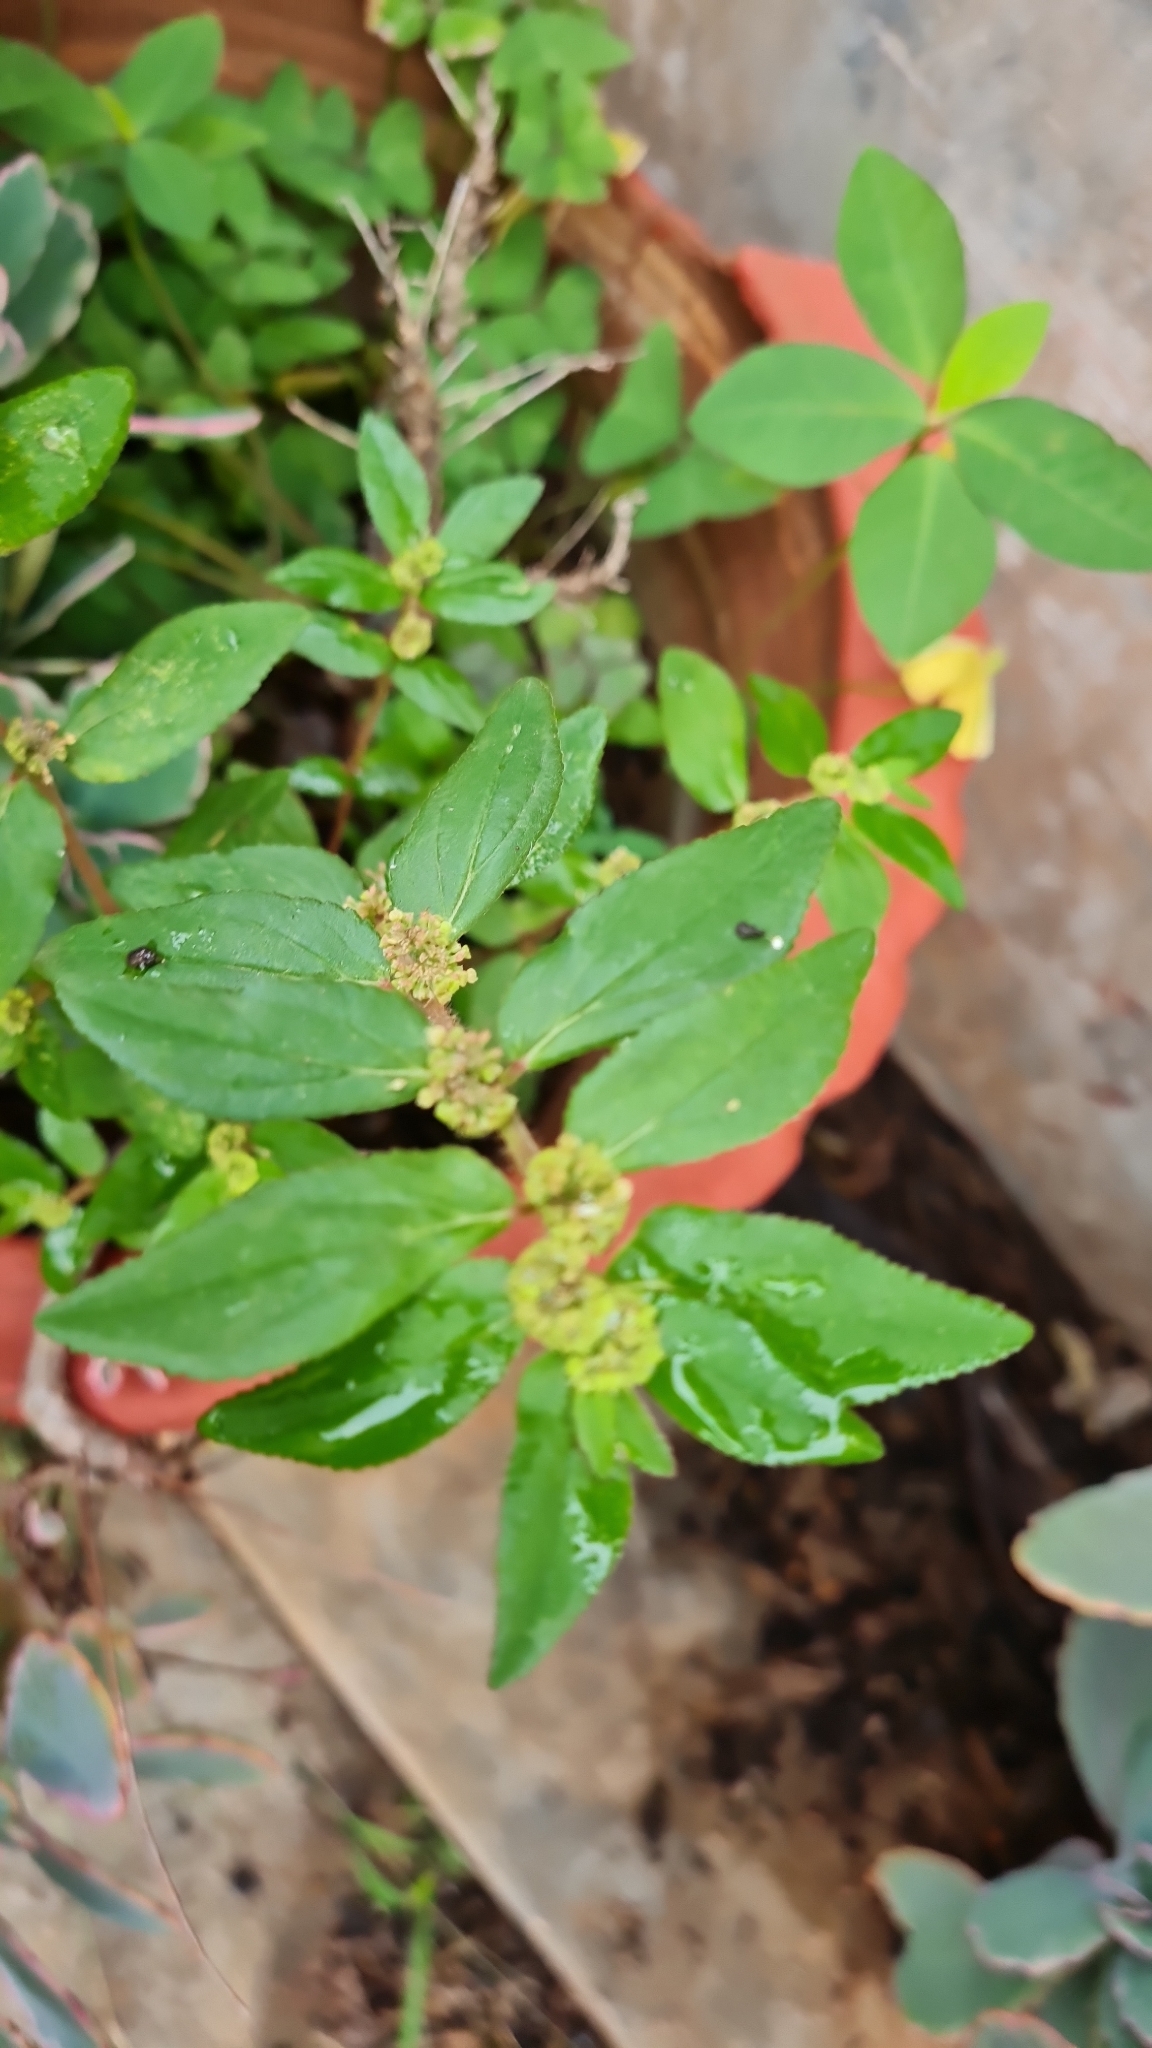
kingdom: Plantae
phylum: Tracheophyta
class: Magnoliopsida
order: Malpighiales
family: Euphorbiaceae
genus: Euphorbia
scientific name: Euphorbia hirta
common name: Pillpod sandmat
